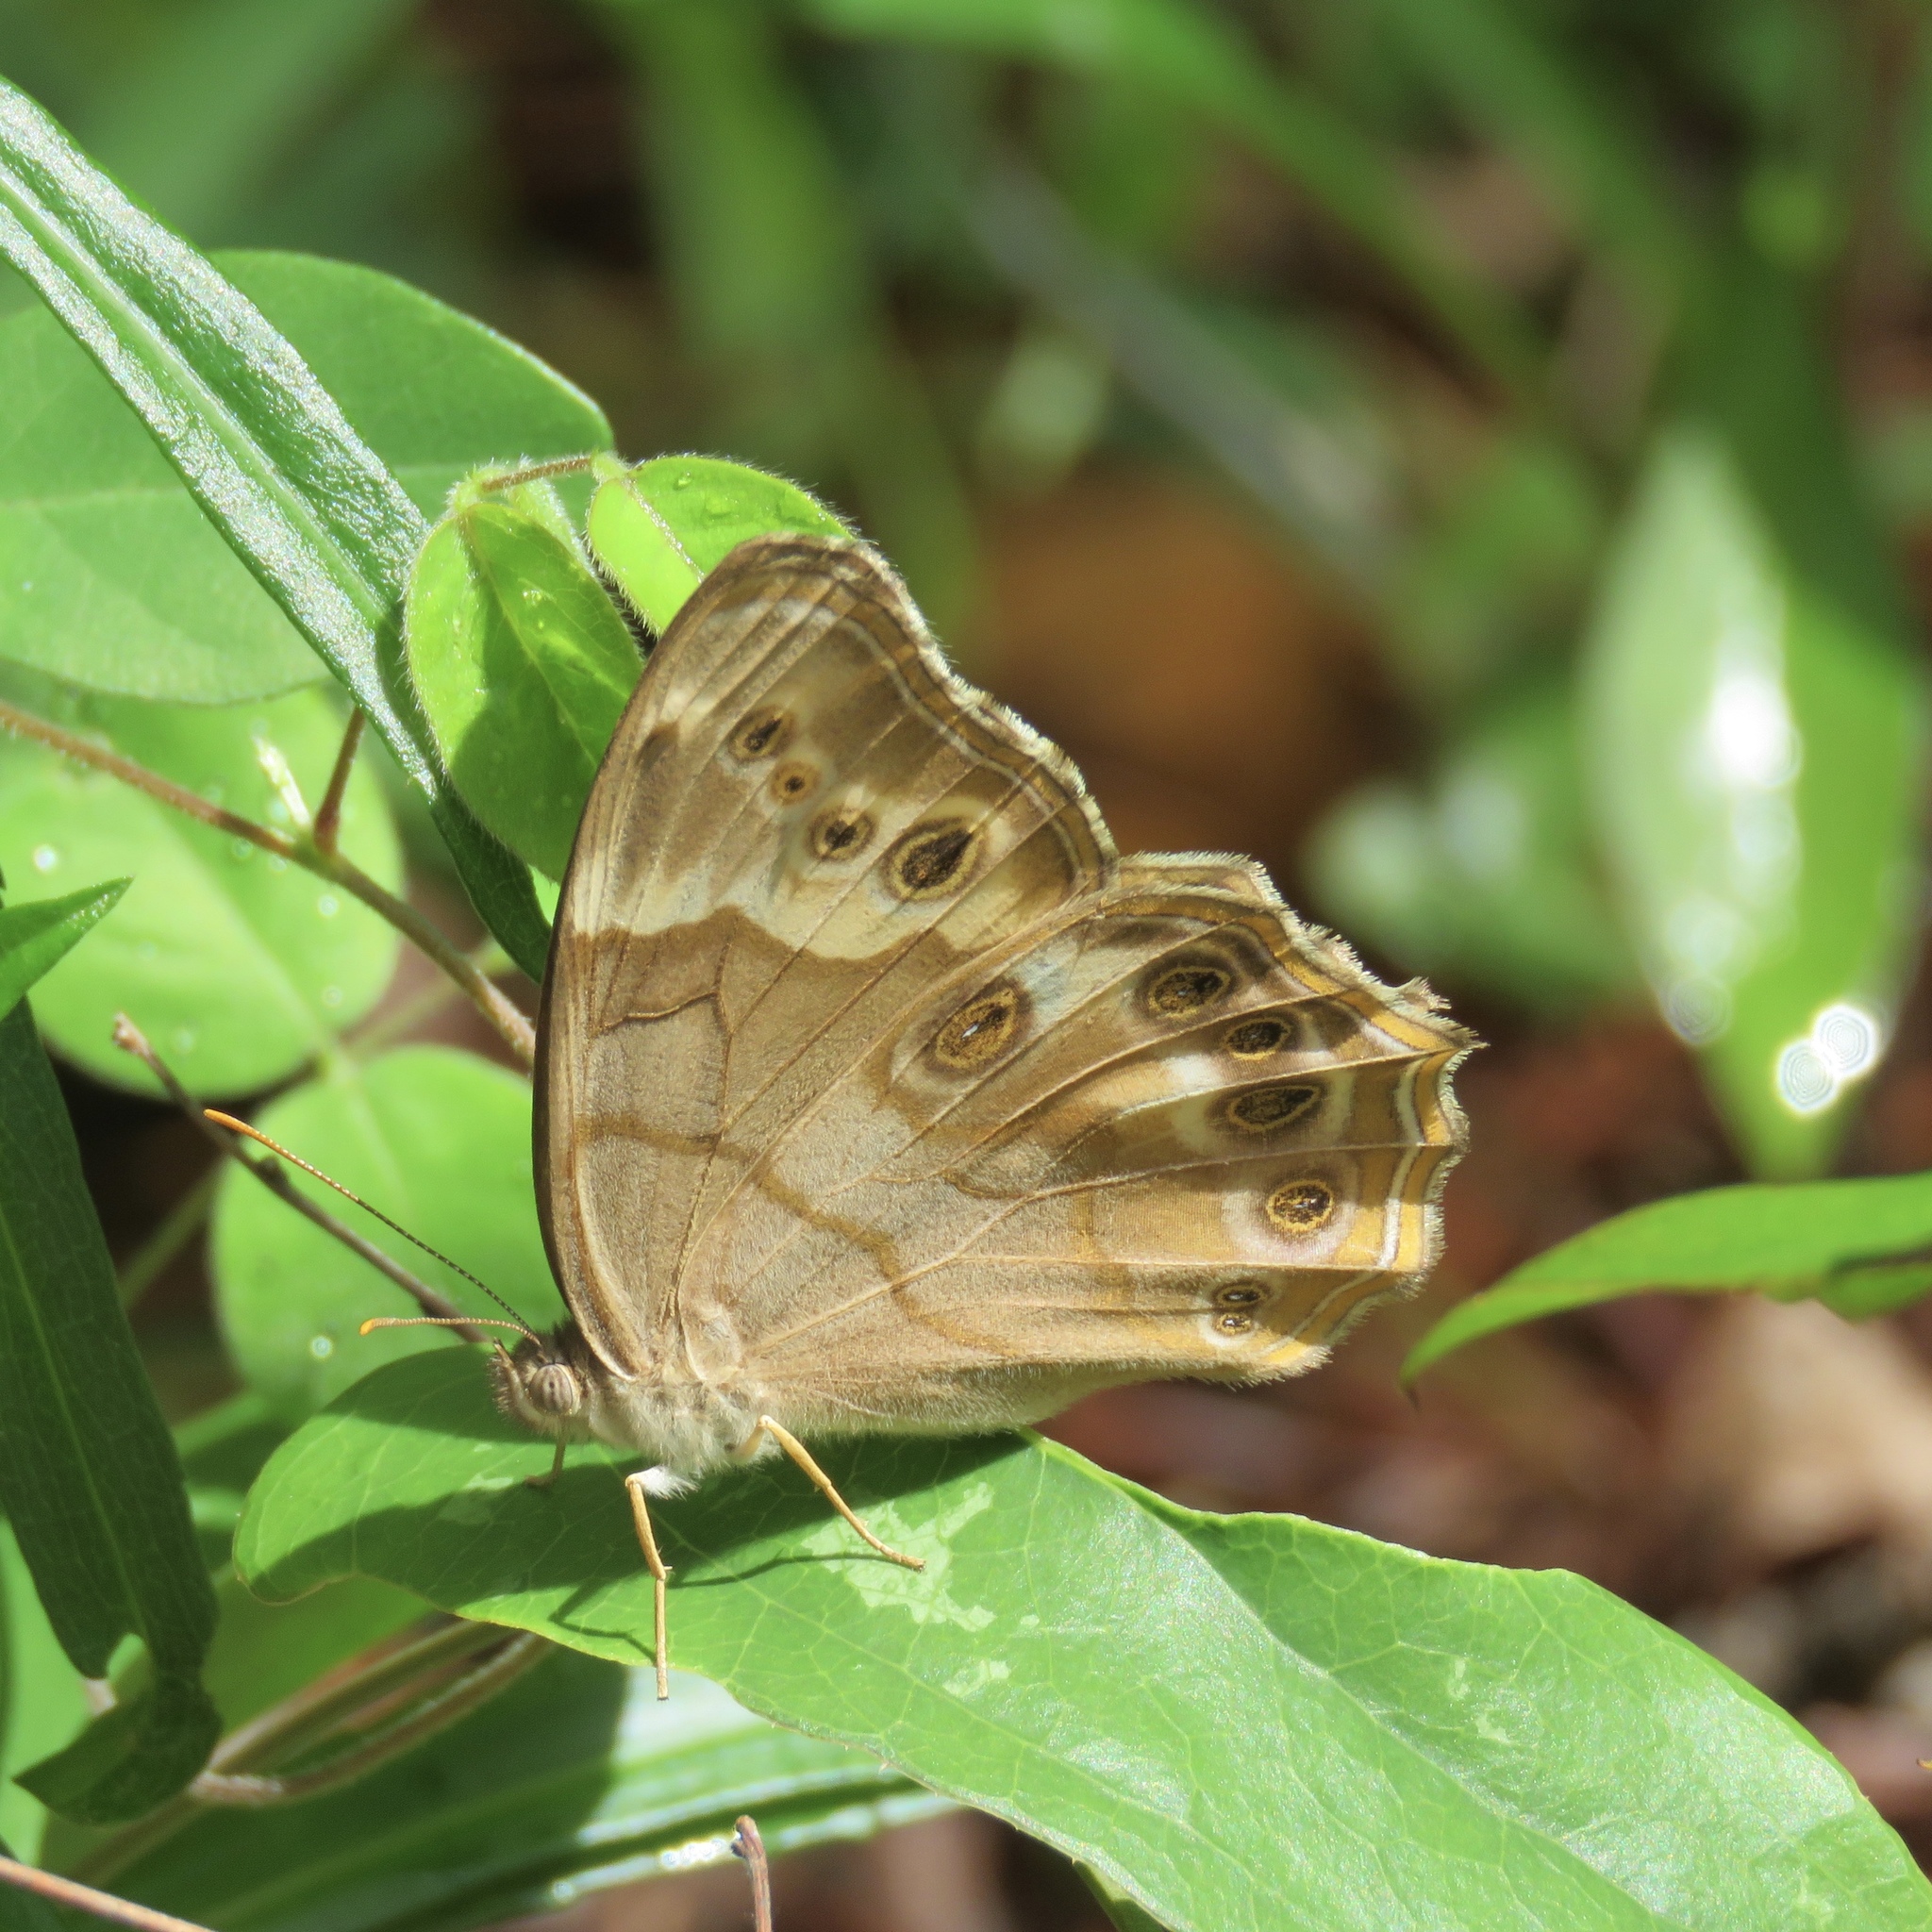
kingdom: Animalia
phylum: Arthropoda
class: Insecta
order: Lepidoptera
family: Nymphalidae
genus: Enodia
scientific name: Enodia portlandia
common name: Southern pearly-eye
